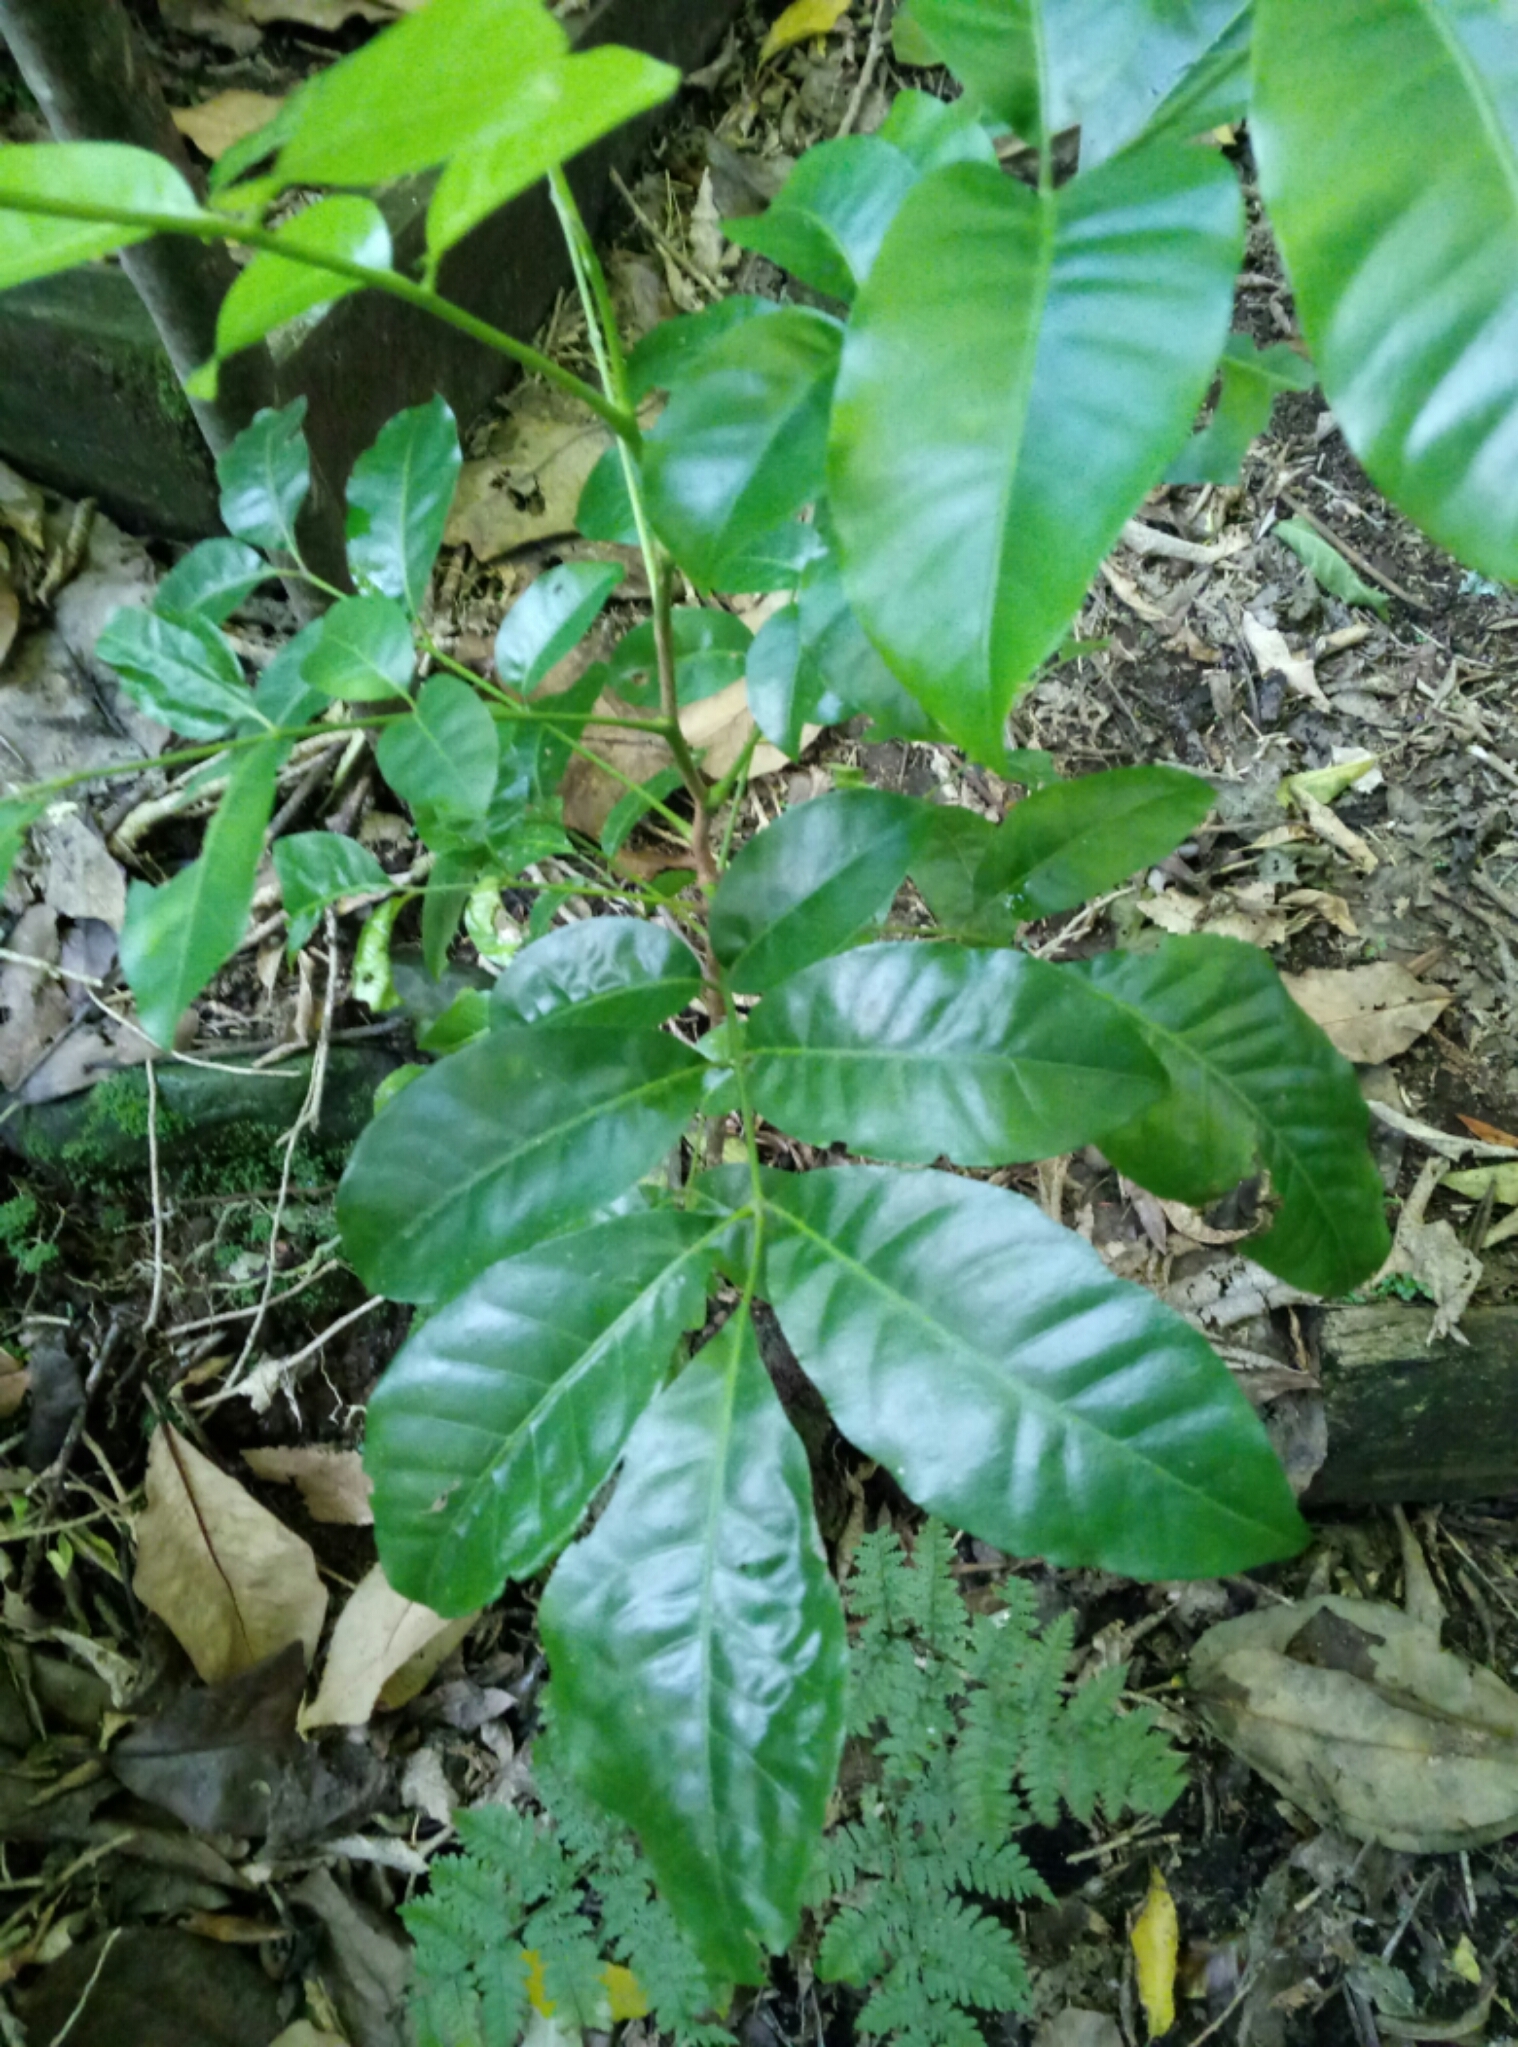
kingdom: Plantae
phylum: Tracheophyta
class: Magnoliopsida
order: Sapindales
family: Meliaceae
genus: Didymocheton
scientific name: Didymocheton spectabilis
